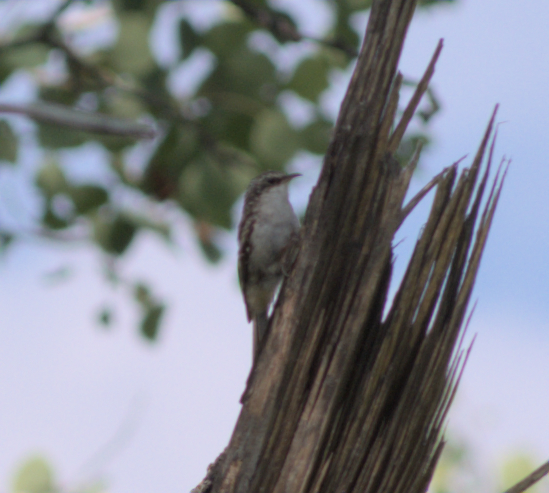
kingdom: Animalia
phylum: Chordata
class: Aves
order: Passeriformes
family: Certhiidae
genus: Certhia
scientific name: Certhia americana
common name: Brown creeper
